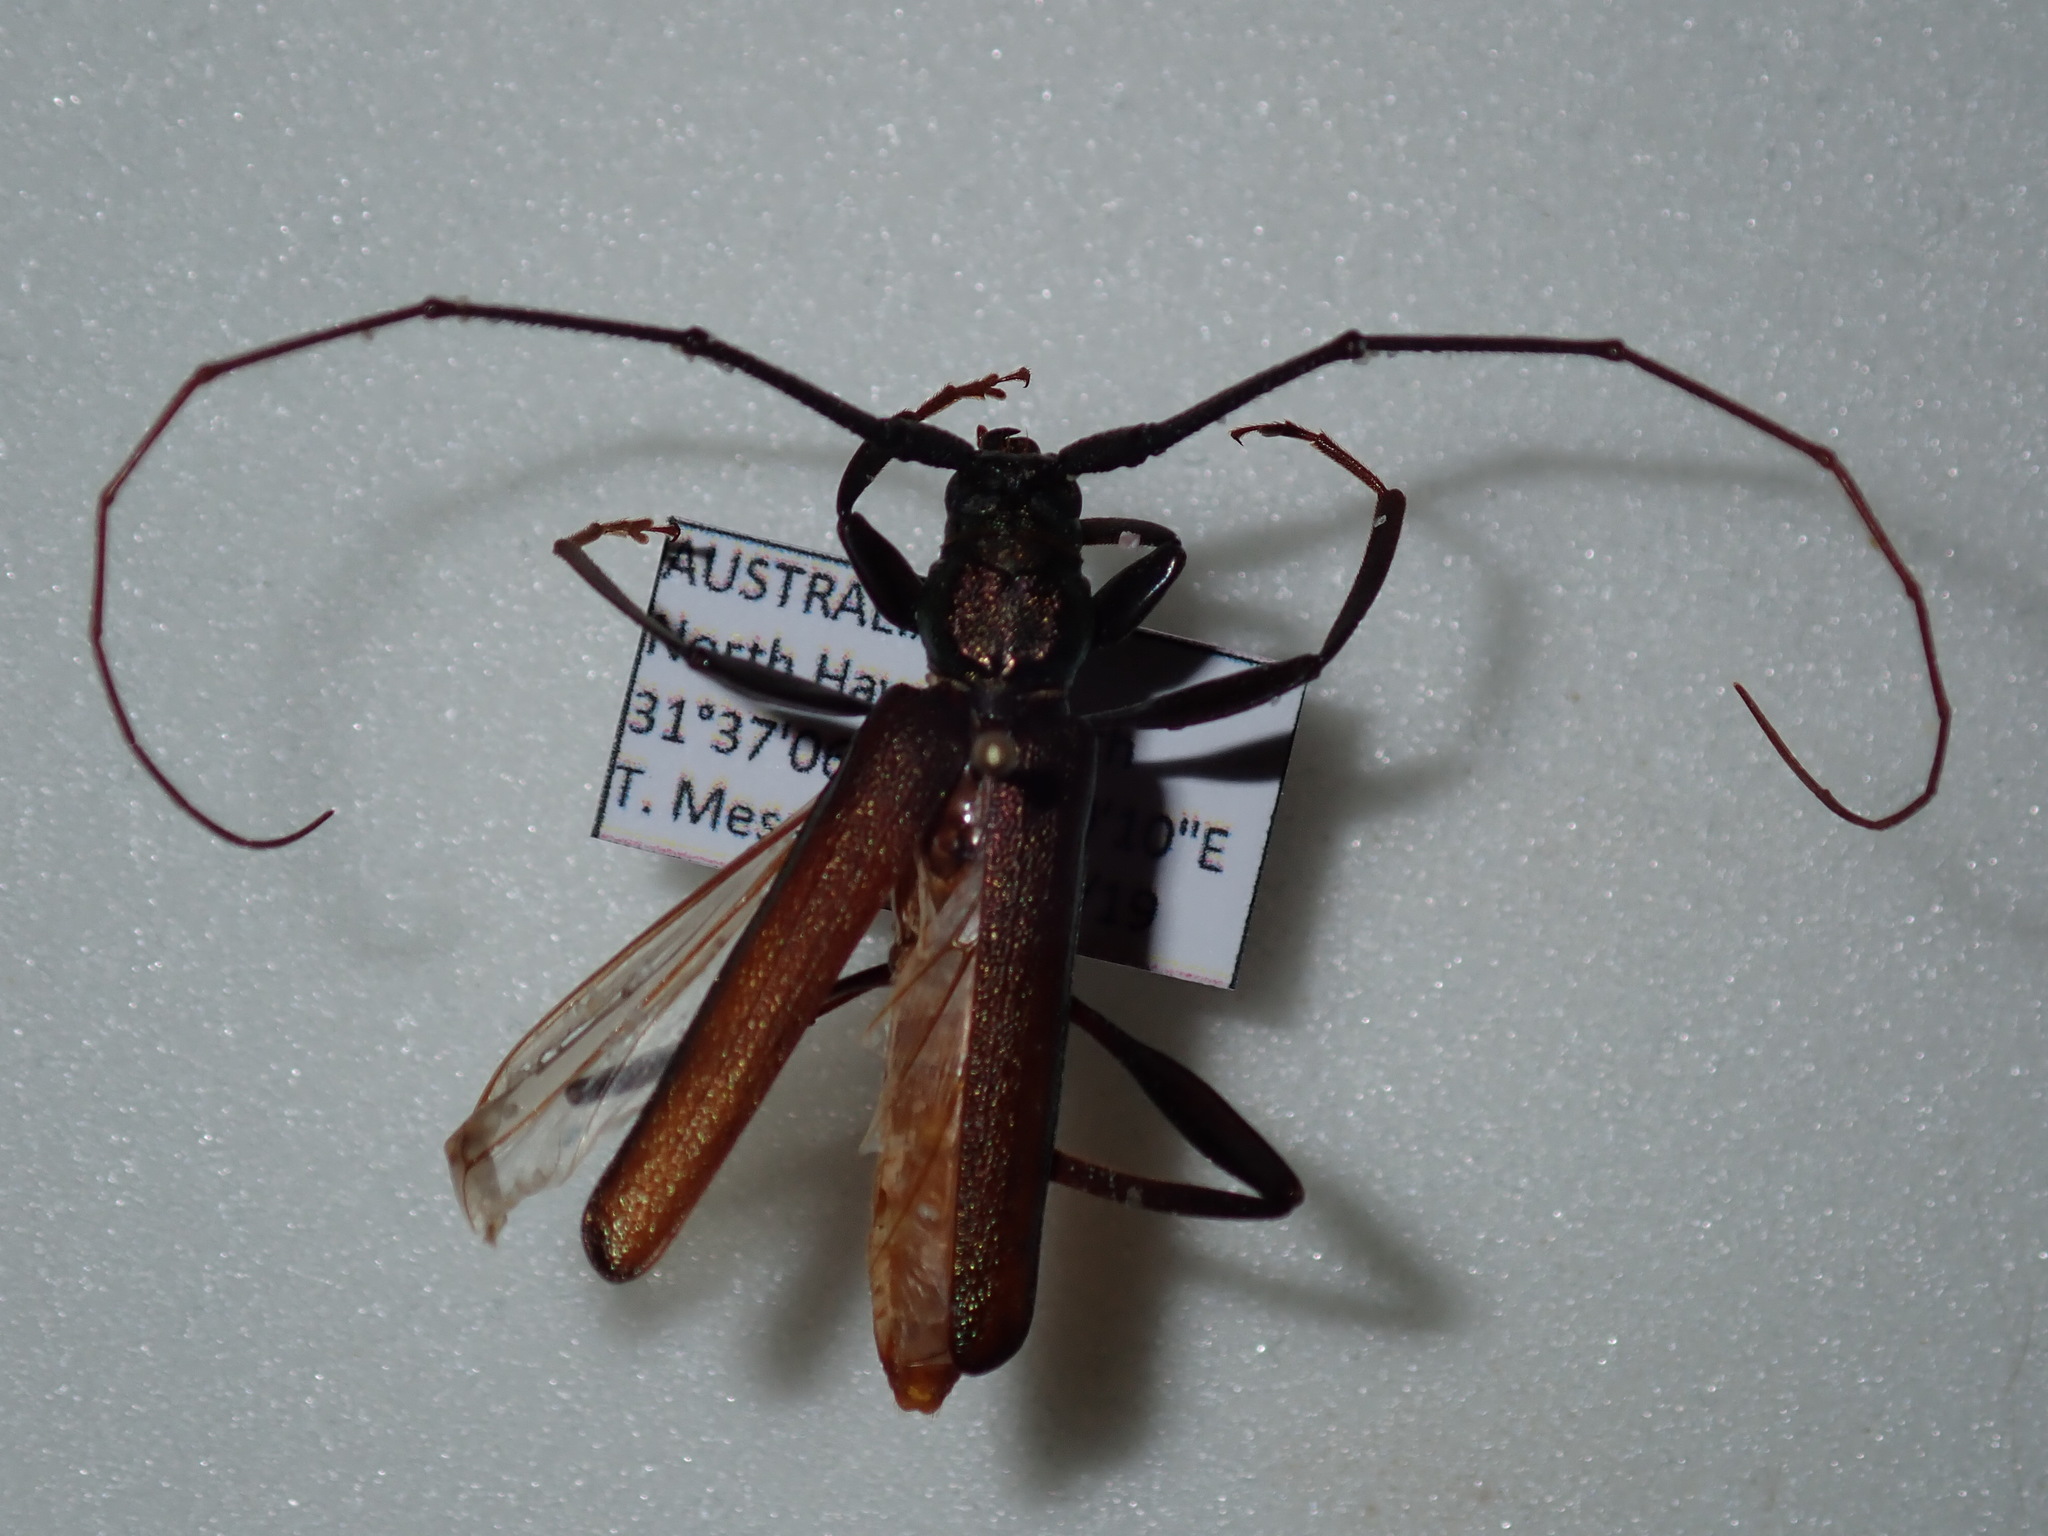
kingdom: Animalia
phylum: Arthropoda
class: Insecta
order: Coleoptera
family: Cerambycidae
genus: Xystrocera
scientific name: Xystrocera virescens
